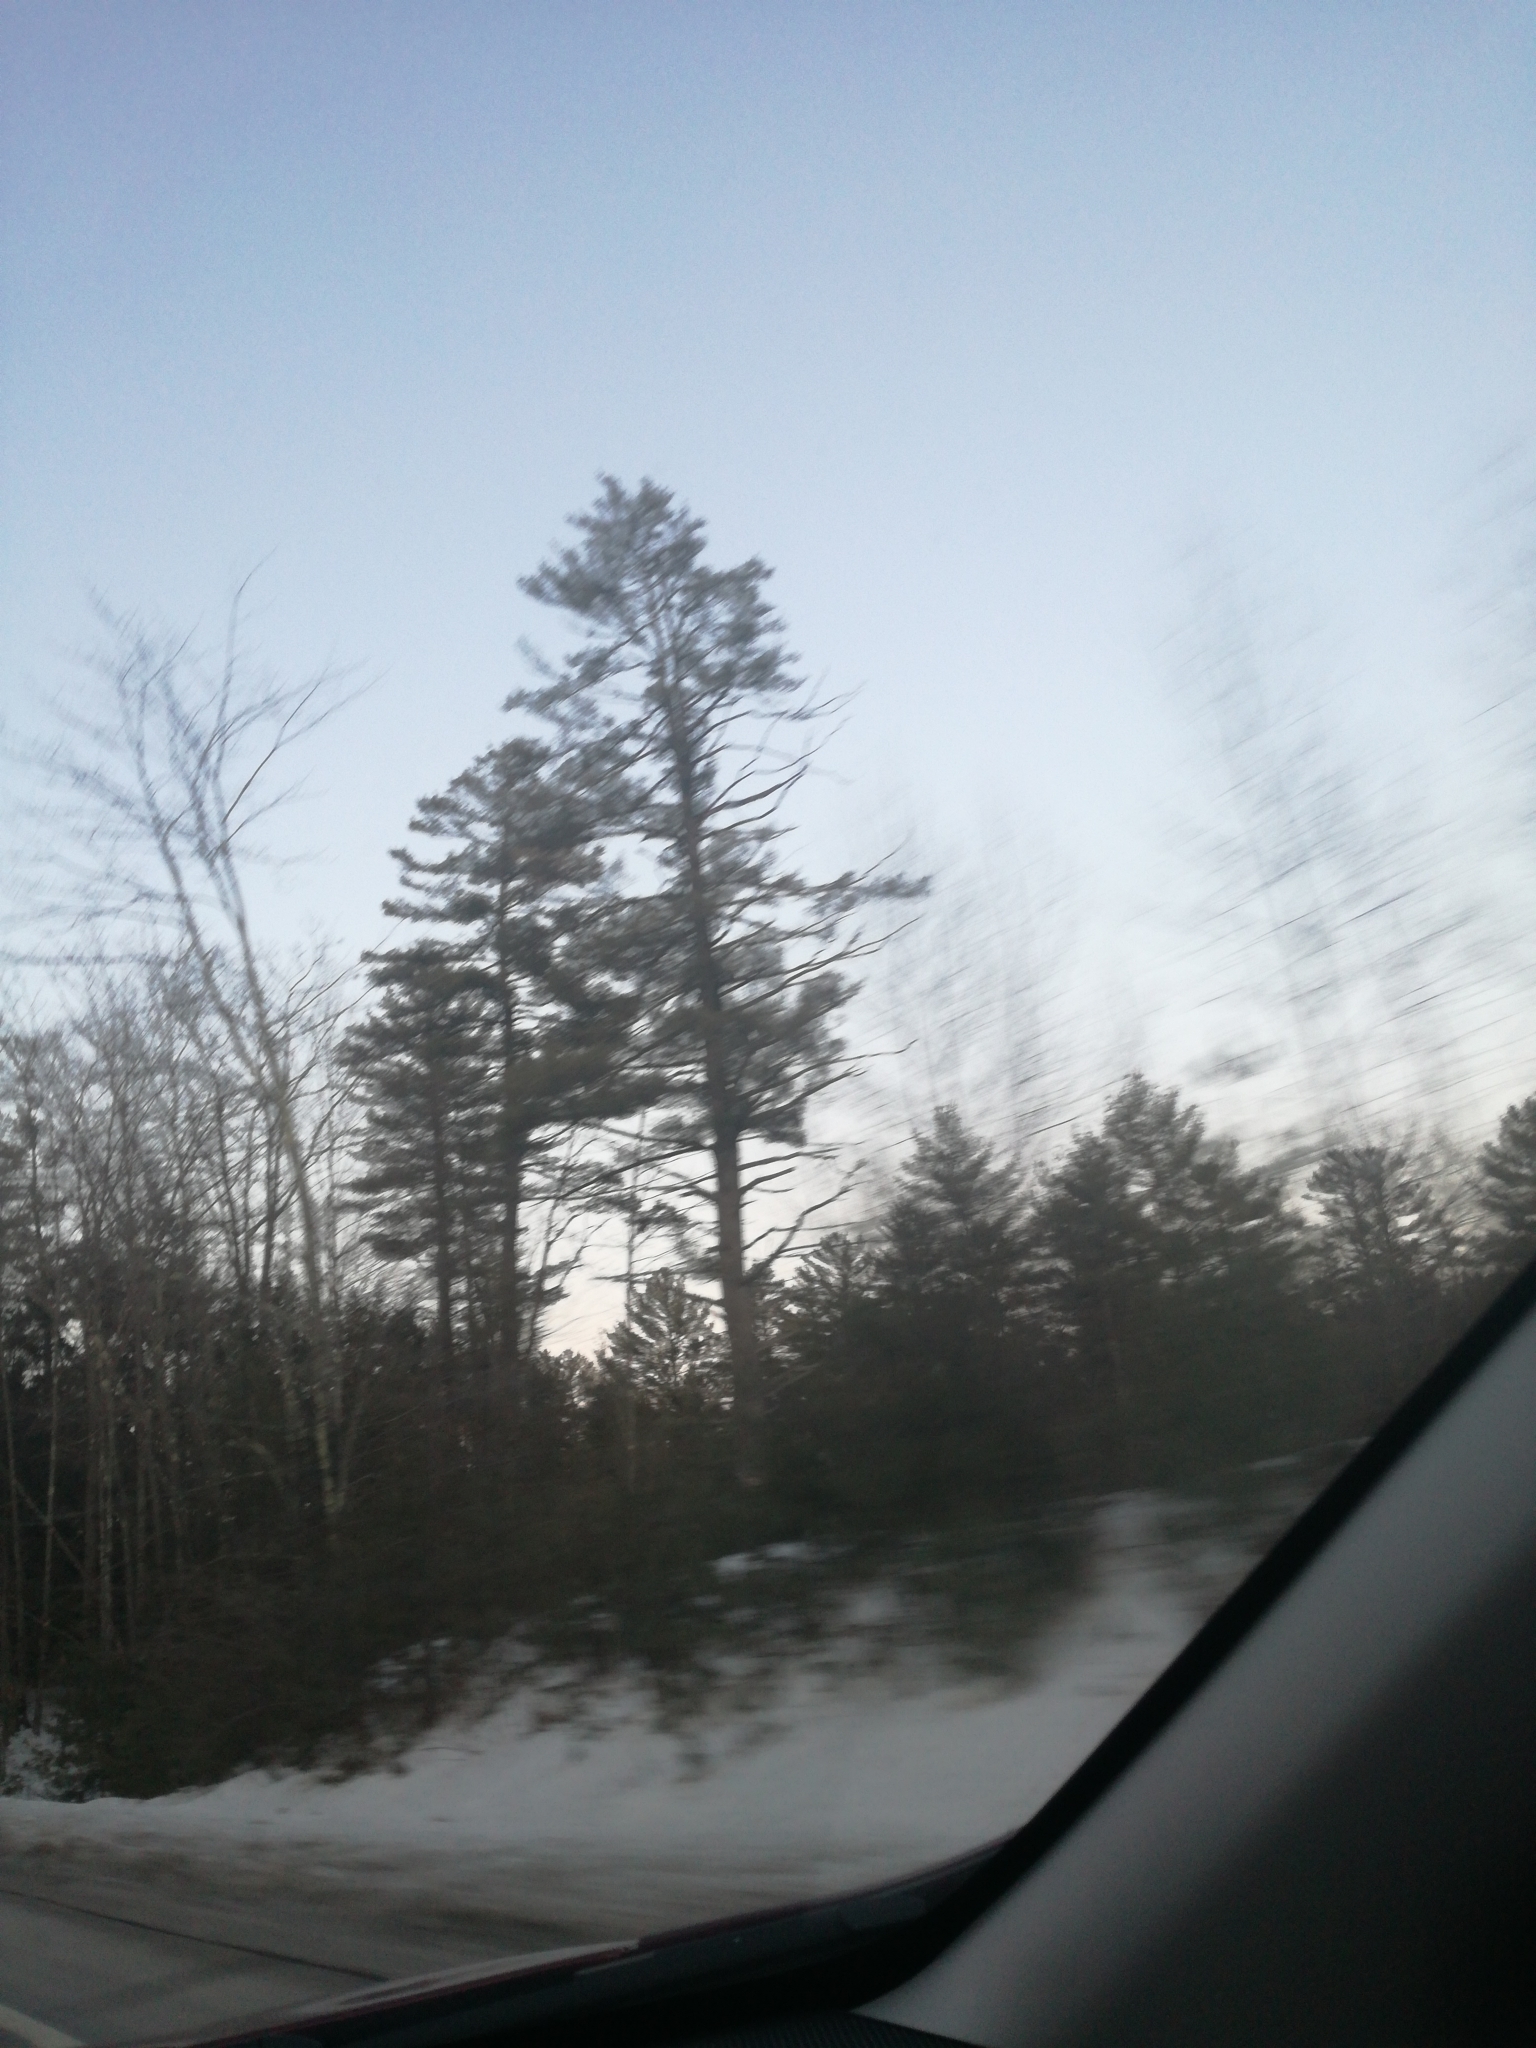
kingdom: Plantae
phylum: Tracheophyta
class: Pinopsida
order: Pinales
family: Pinaceae
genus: Pinus
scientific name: Pinus strobus
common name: Weymouth pine
